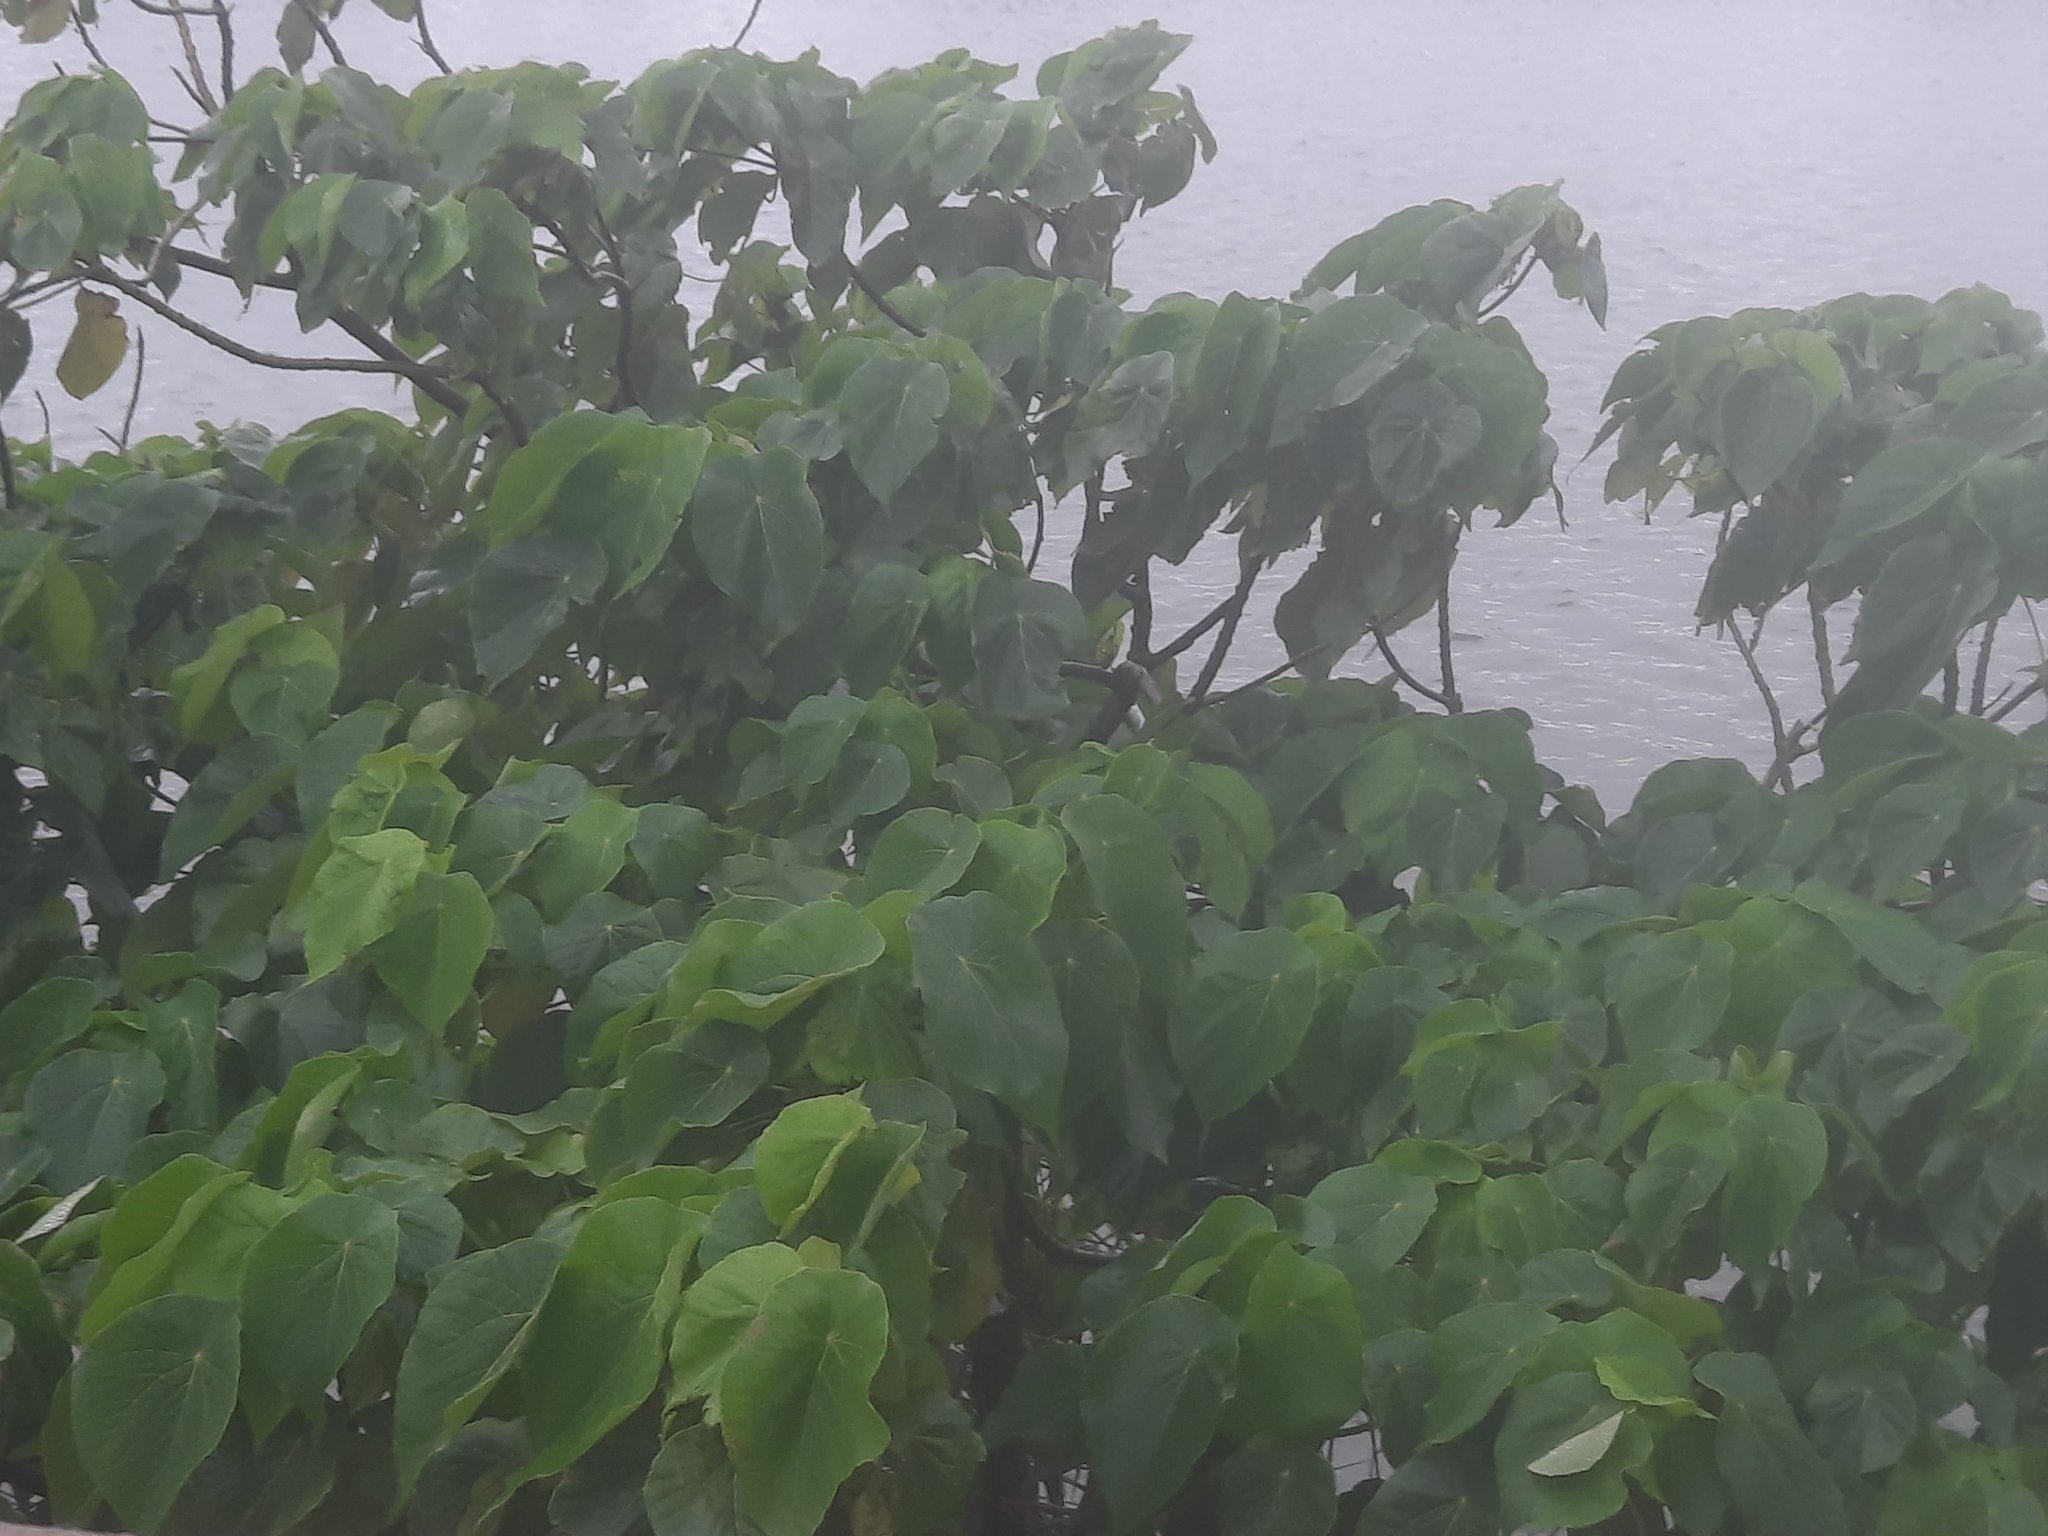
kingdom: Plantae
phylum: Tracheophyta
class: Magnoliopsida
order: Malpighiales
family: Euphorbiaceae
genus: Macaranga
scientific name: Macaranga tanarius
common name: Parasol leaf tree
